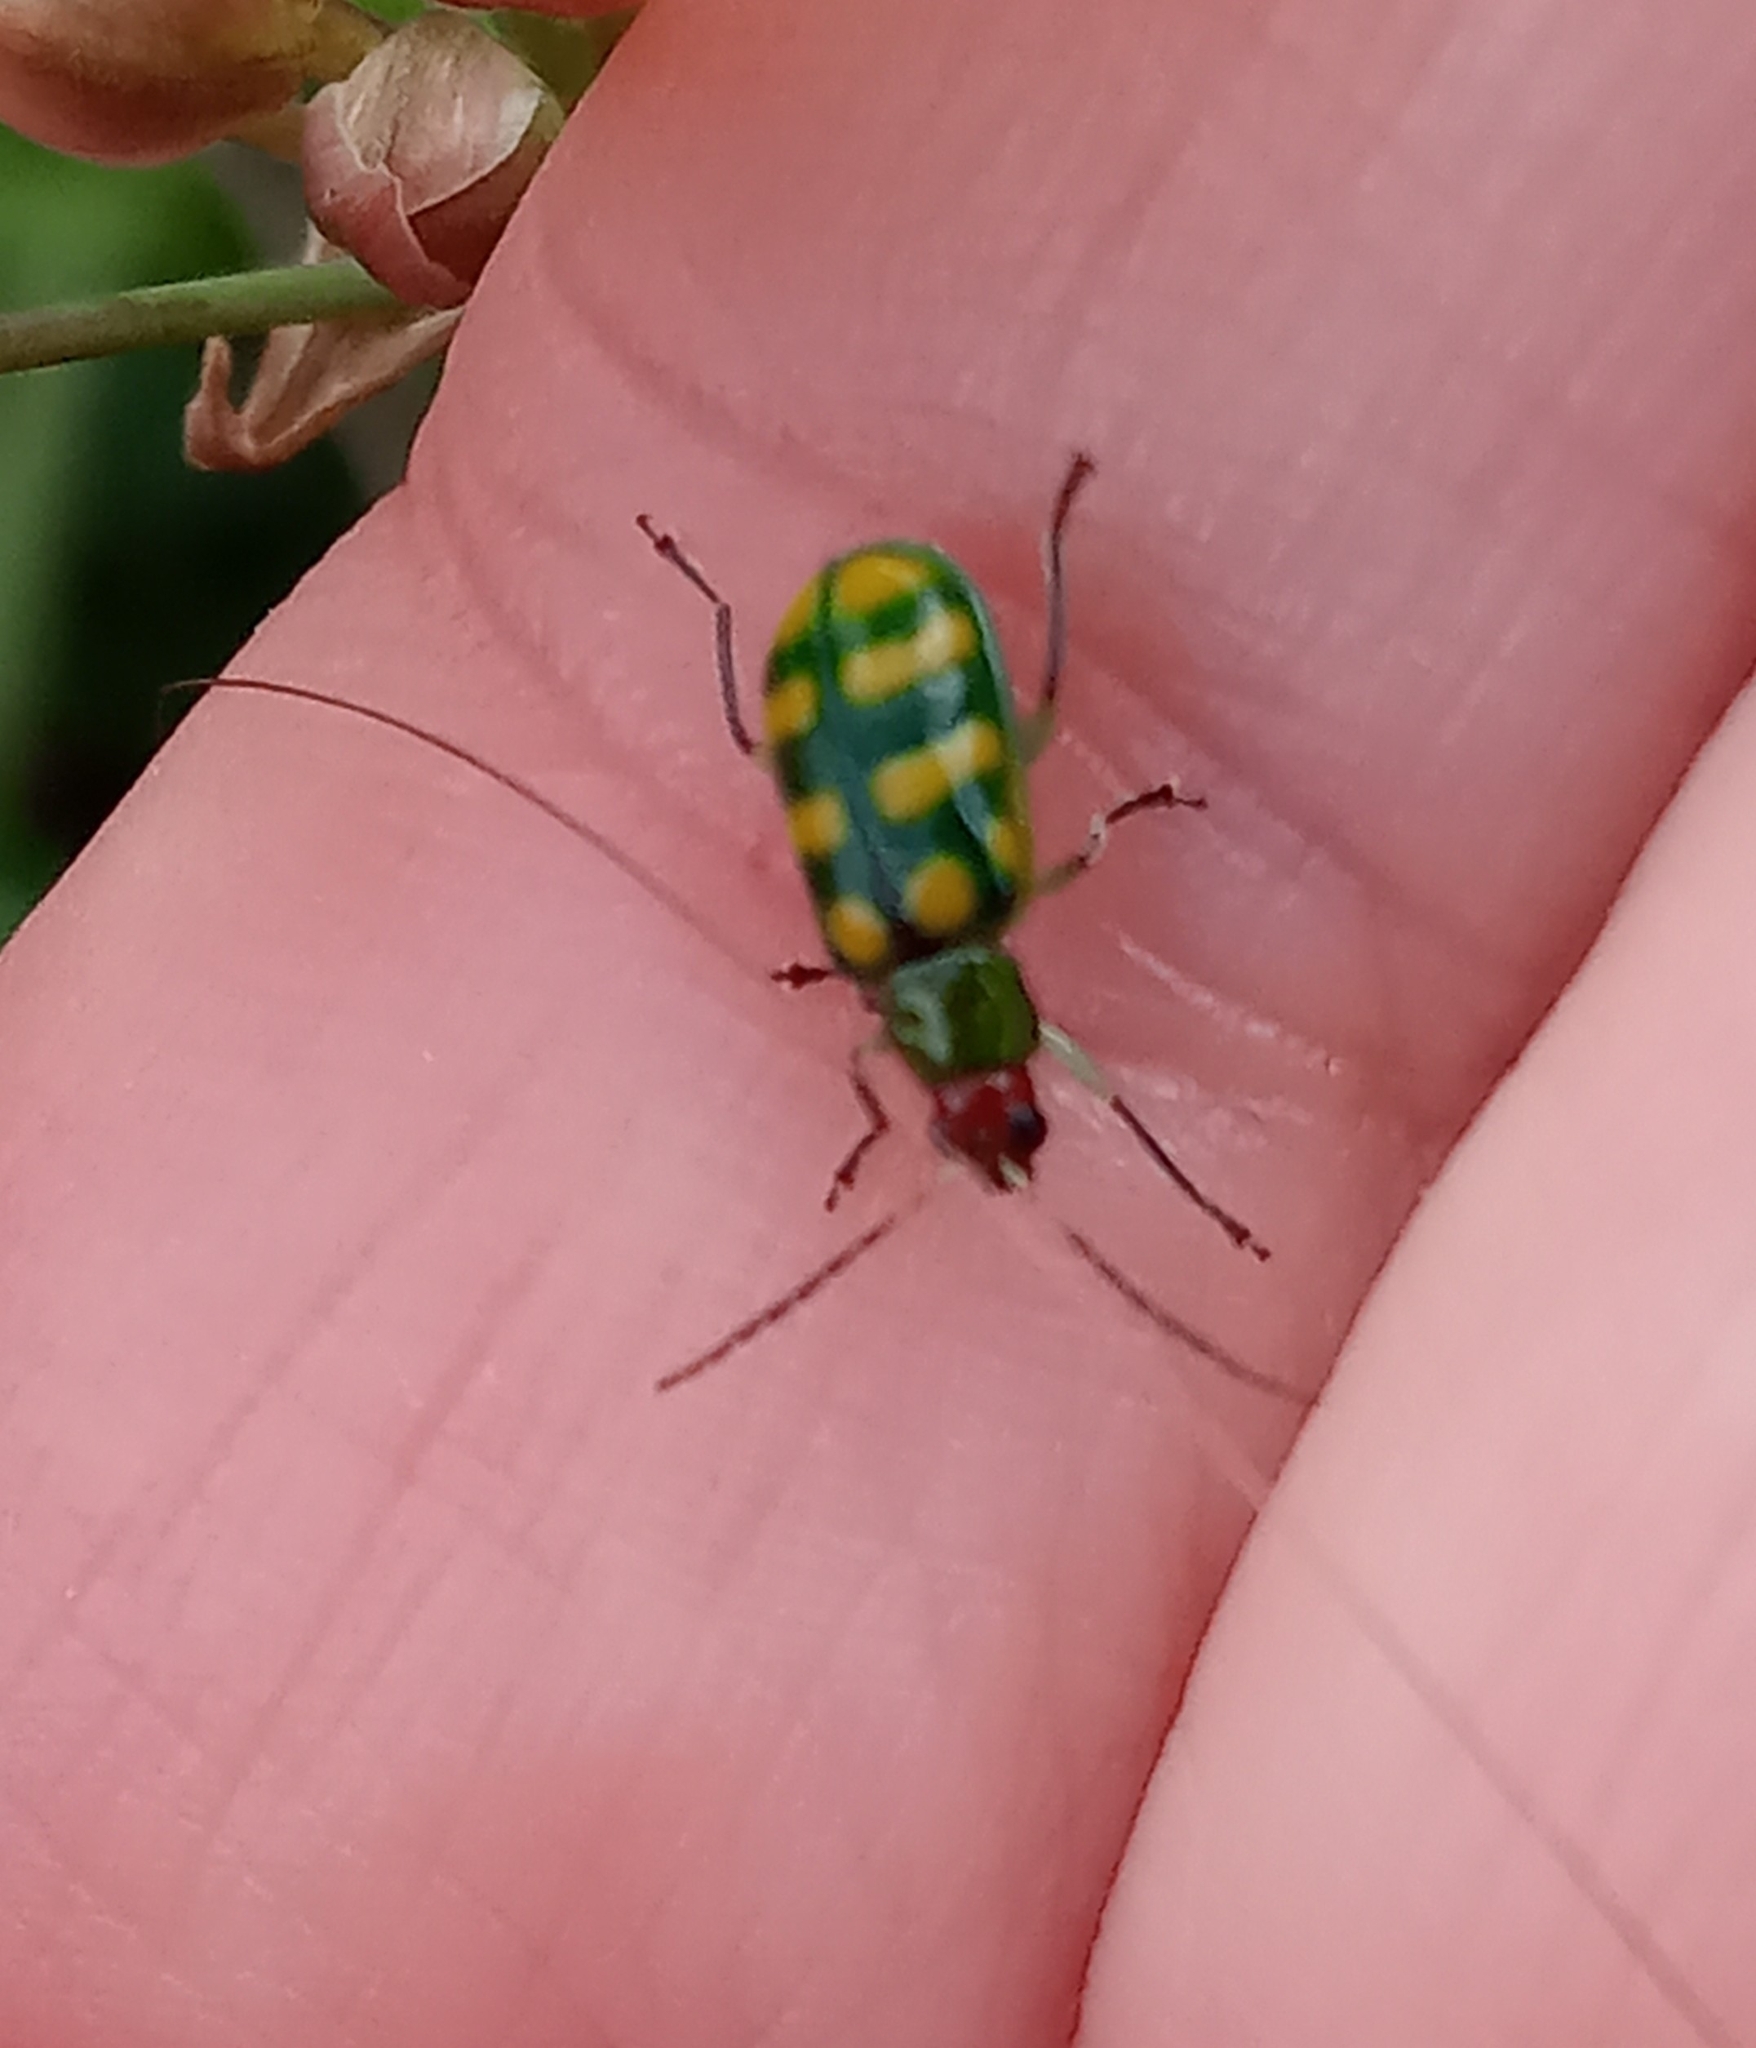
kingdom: Animalia
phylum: Arthropoda
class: Insecta
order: Coleoptera
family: Chrysomelidae
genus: Diabrotica
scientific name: Diabrotica balteata
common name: Leaf beetle
